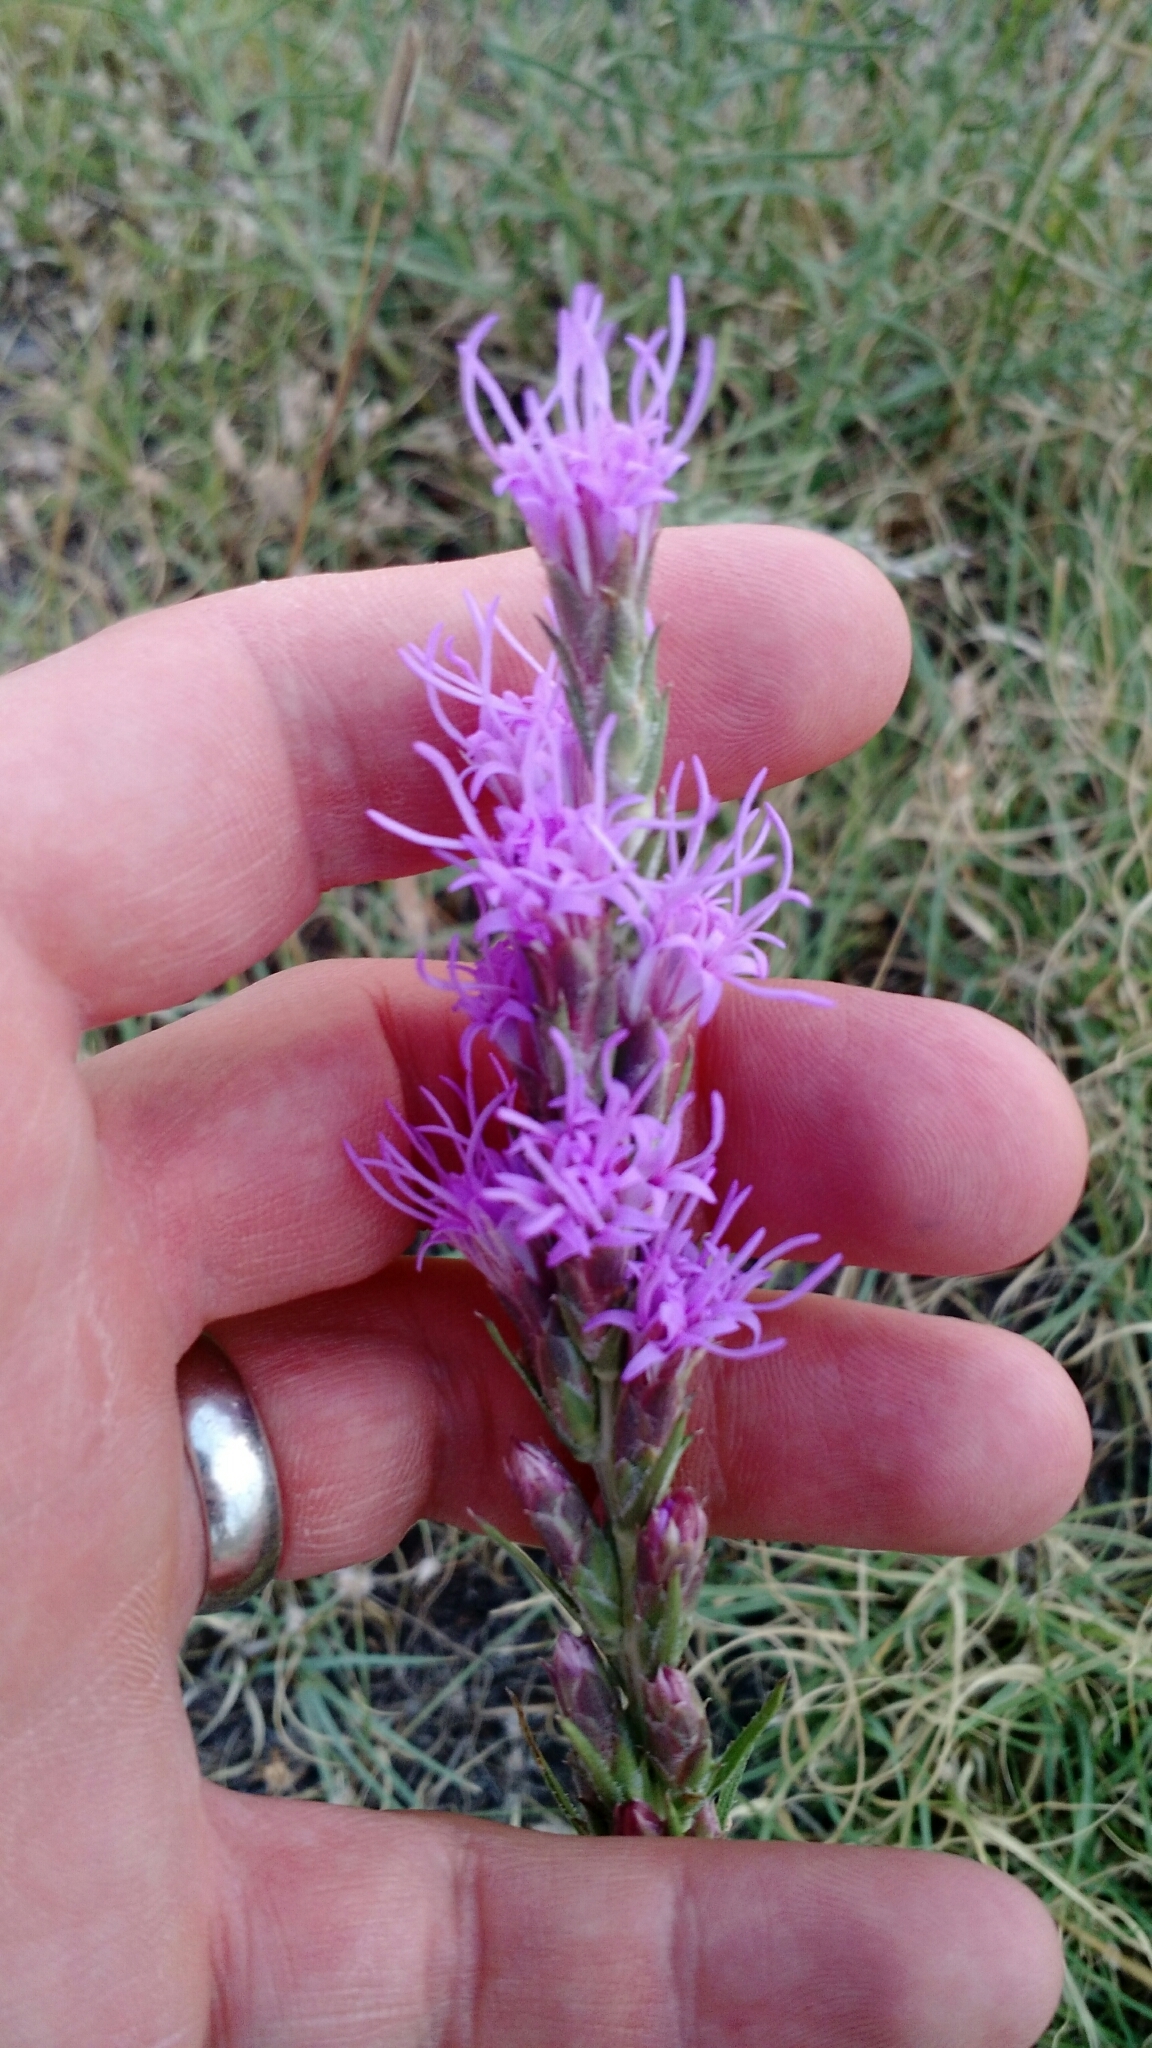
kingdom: Plantae
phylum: Tracheophyta
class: Magnoliopsida
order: Asterales
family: Asteraceae
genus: Liatris
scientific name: Liatris punctata
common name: Dotted gayfeather
